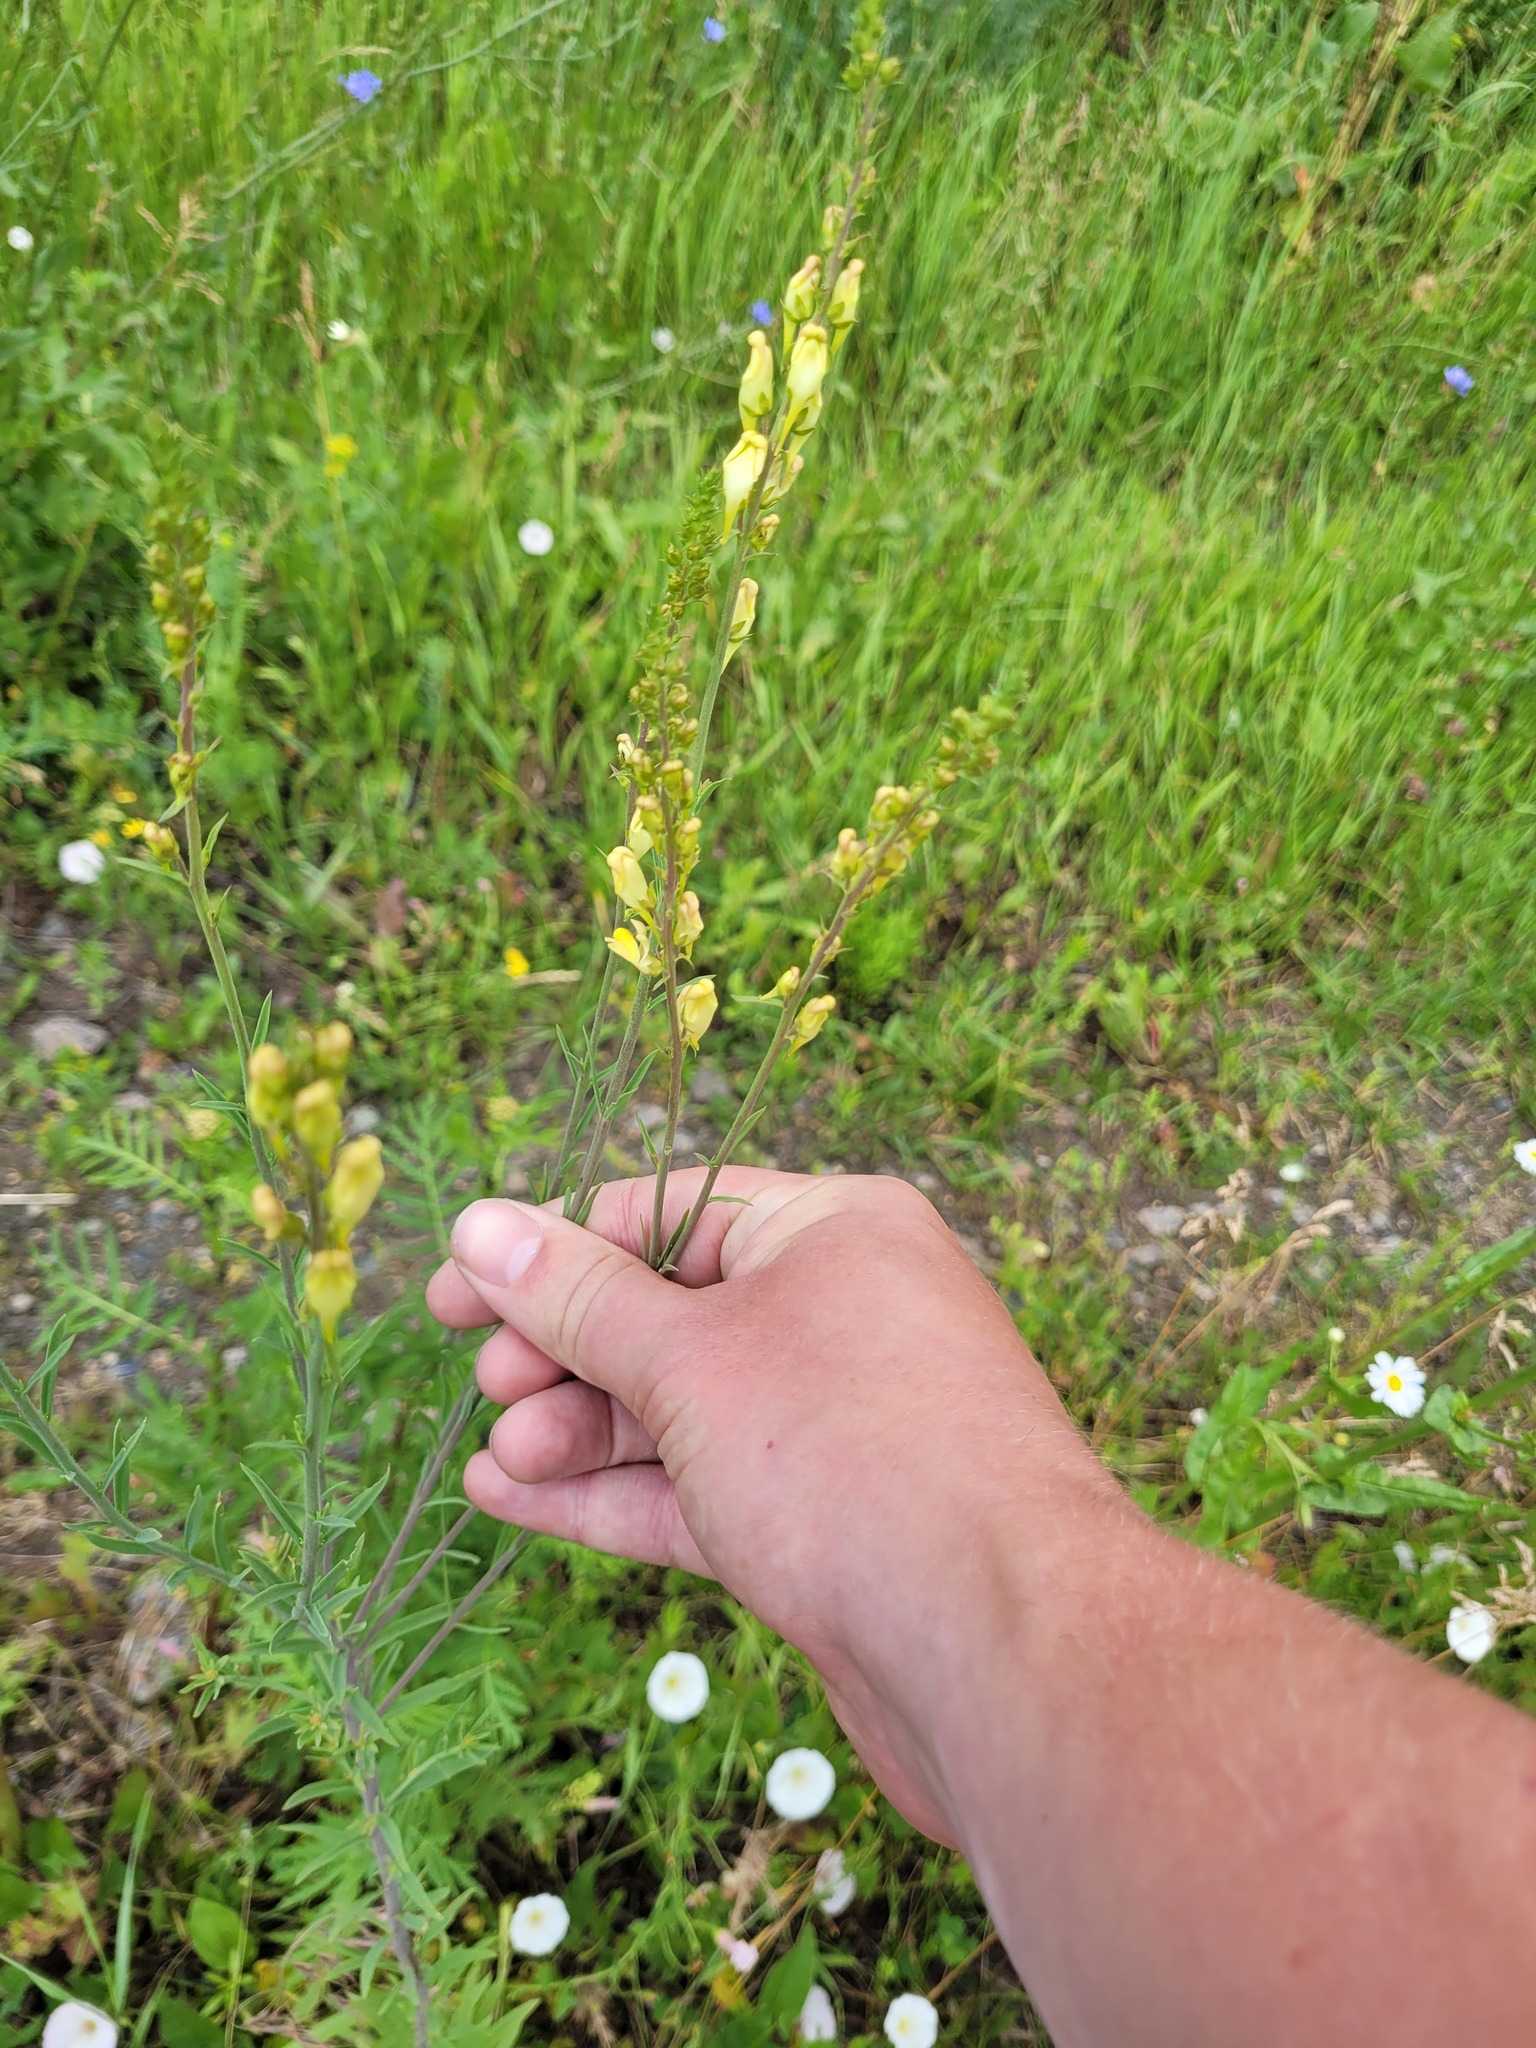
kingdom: Plantae
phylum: Tracheophyta
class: Magnoliopsida
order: Lamiales
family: Plantaginaceae
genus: Linaria
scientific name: Linaria vulgaris
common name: Butter and eggs
